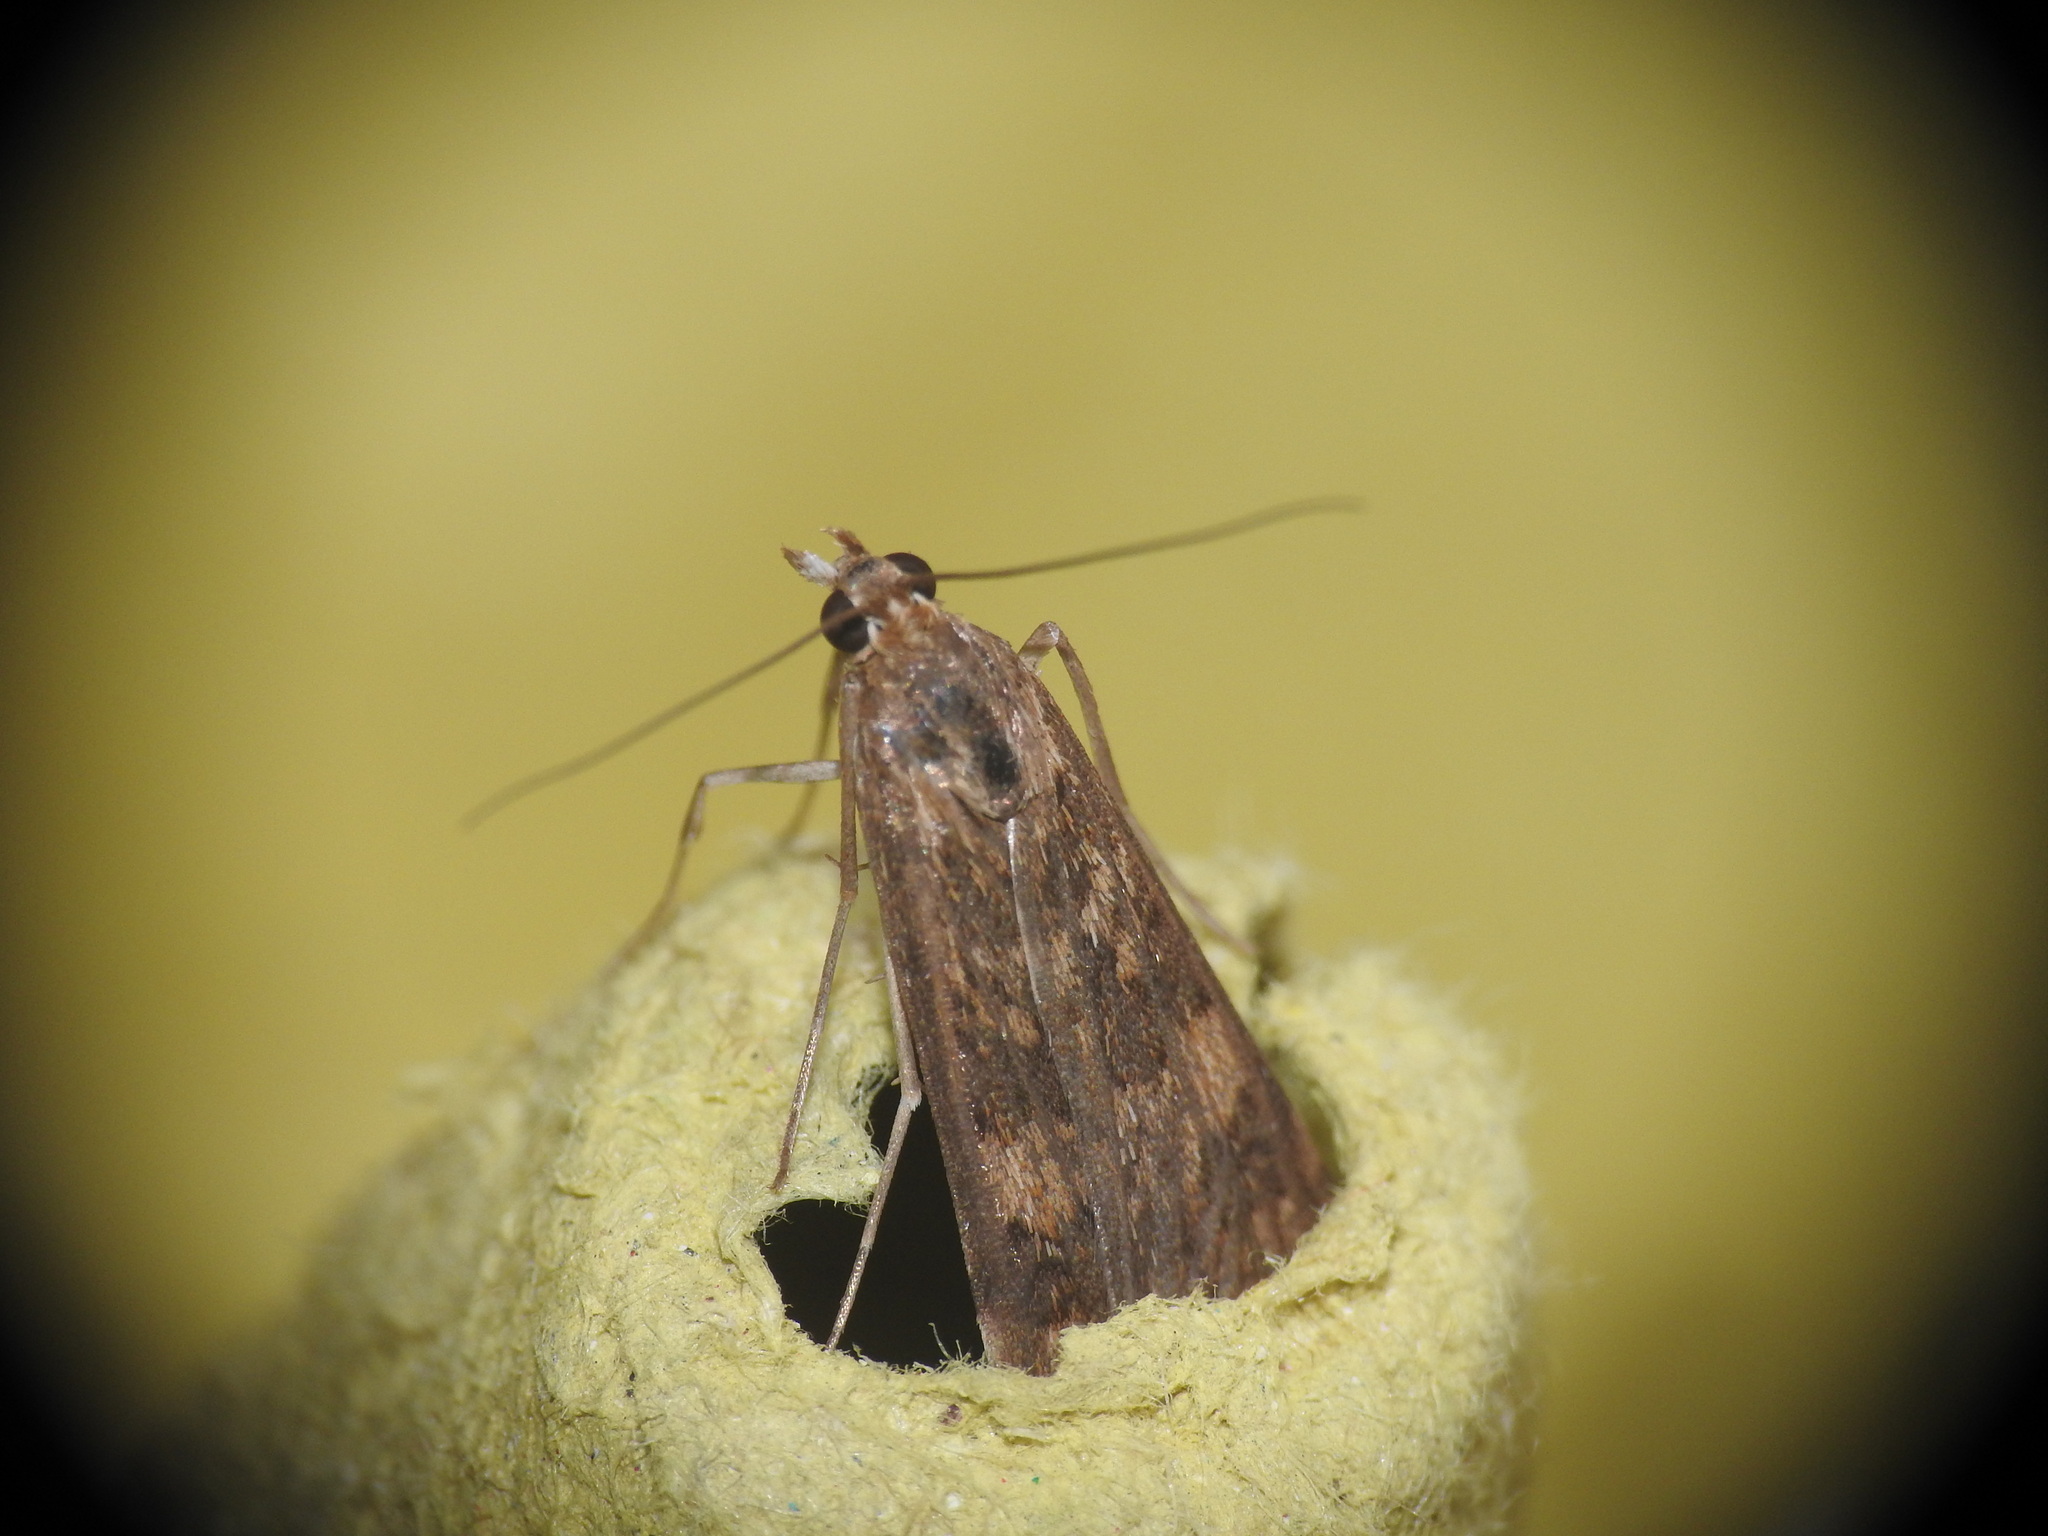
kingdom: Animalia
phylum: Arthropoda
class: Insecta
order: Lepidoptera
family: Crambidae
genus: Nomophila
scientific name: Nomophila noctuella
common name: Rush veneer
